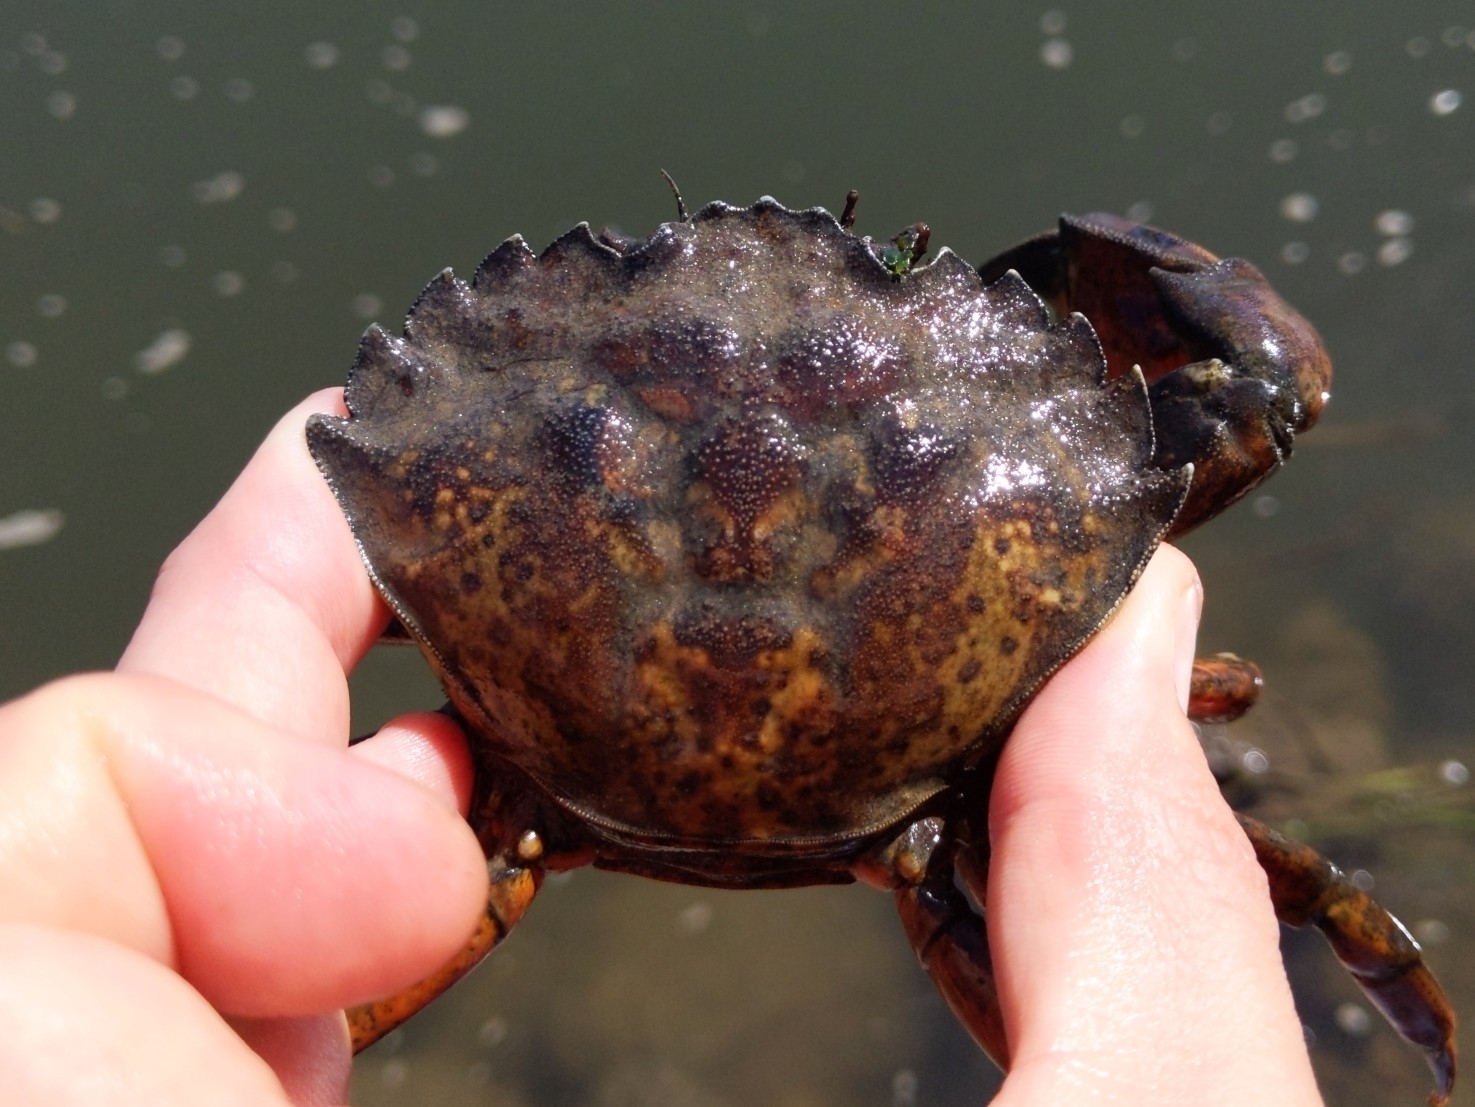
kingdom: Animalia
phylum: Arthropoda
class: Malacostraca
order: Decapoda
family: Carcinidae
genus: Carcinus
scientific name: Carcinus maenas
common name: European green crab
